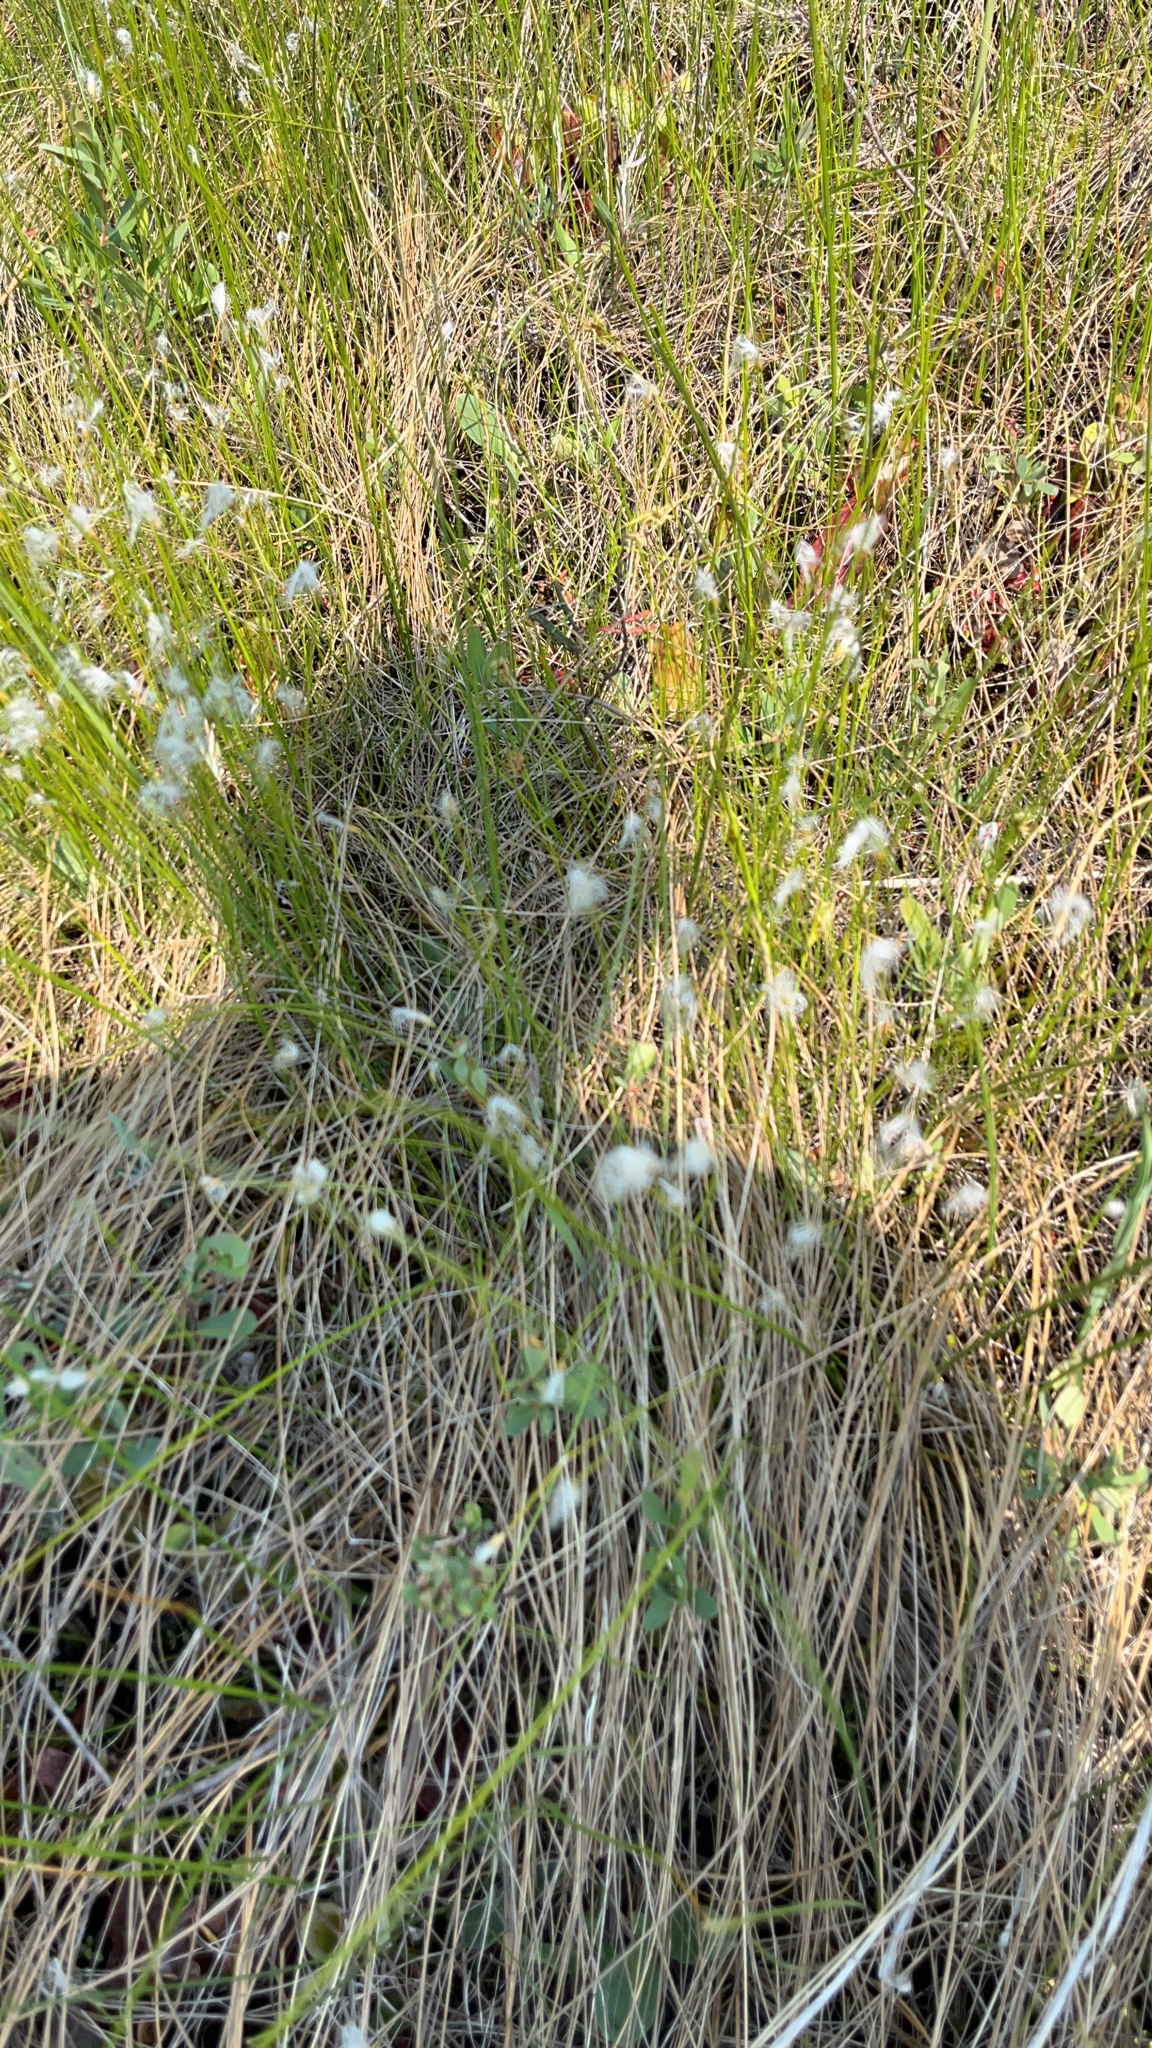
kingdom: Plantae
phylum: Tracheophyta
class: Liliopsida
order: Poales
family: Cyperaceae
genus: Trichophorum
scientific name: Trichophorum alpinum
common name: Alpine bulrush
